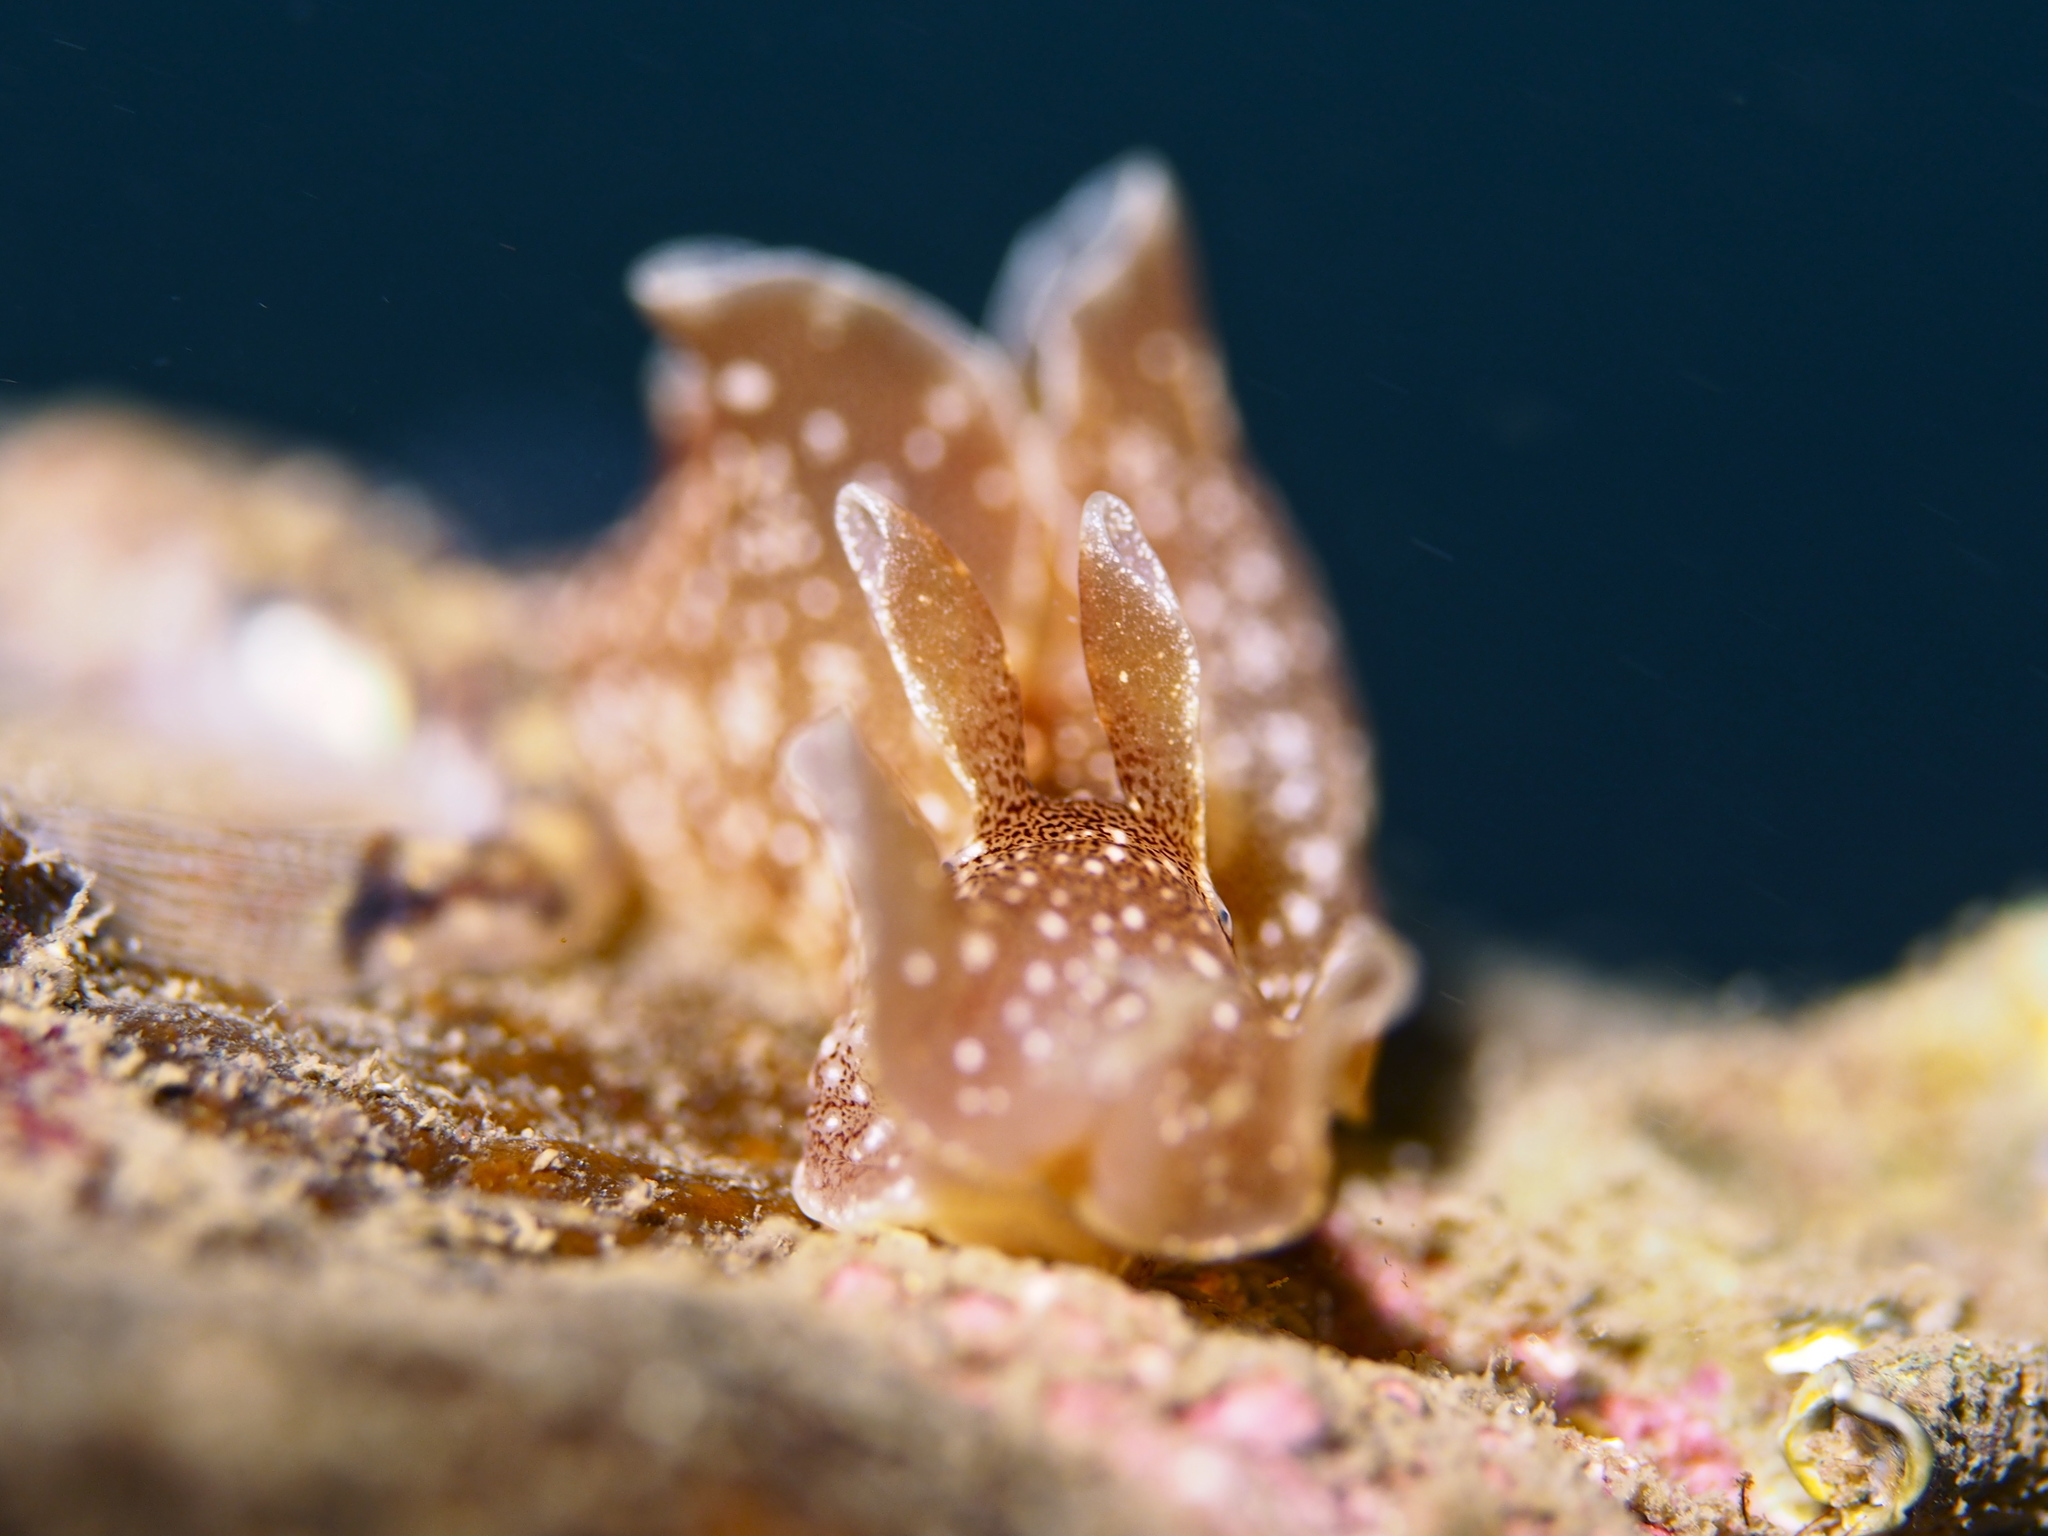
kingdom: Animalia
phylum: Mollusca
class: Gastropoda
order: Aplysiida
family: Aplysiidae
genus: Aplysia
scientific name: Aplysia punctata
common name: Common sea hare
